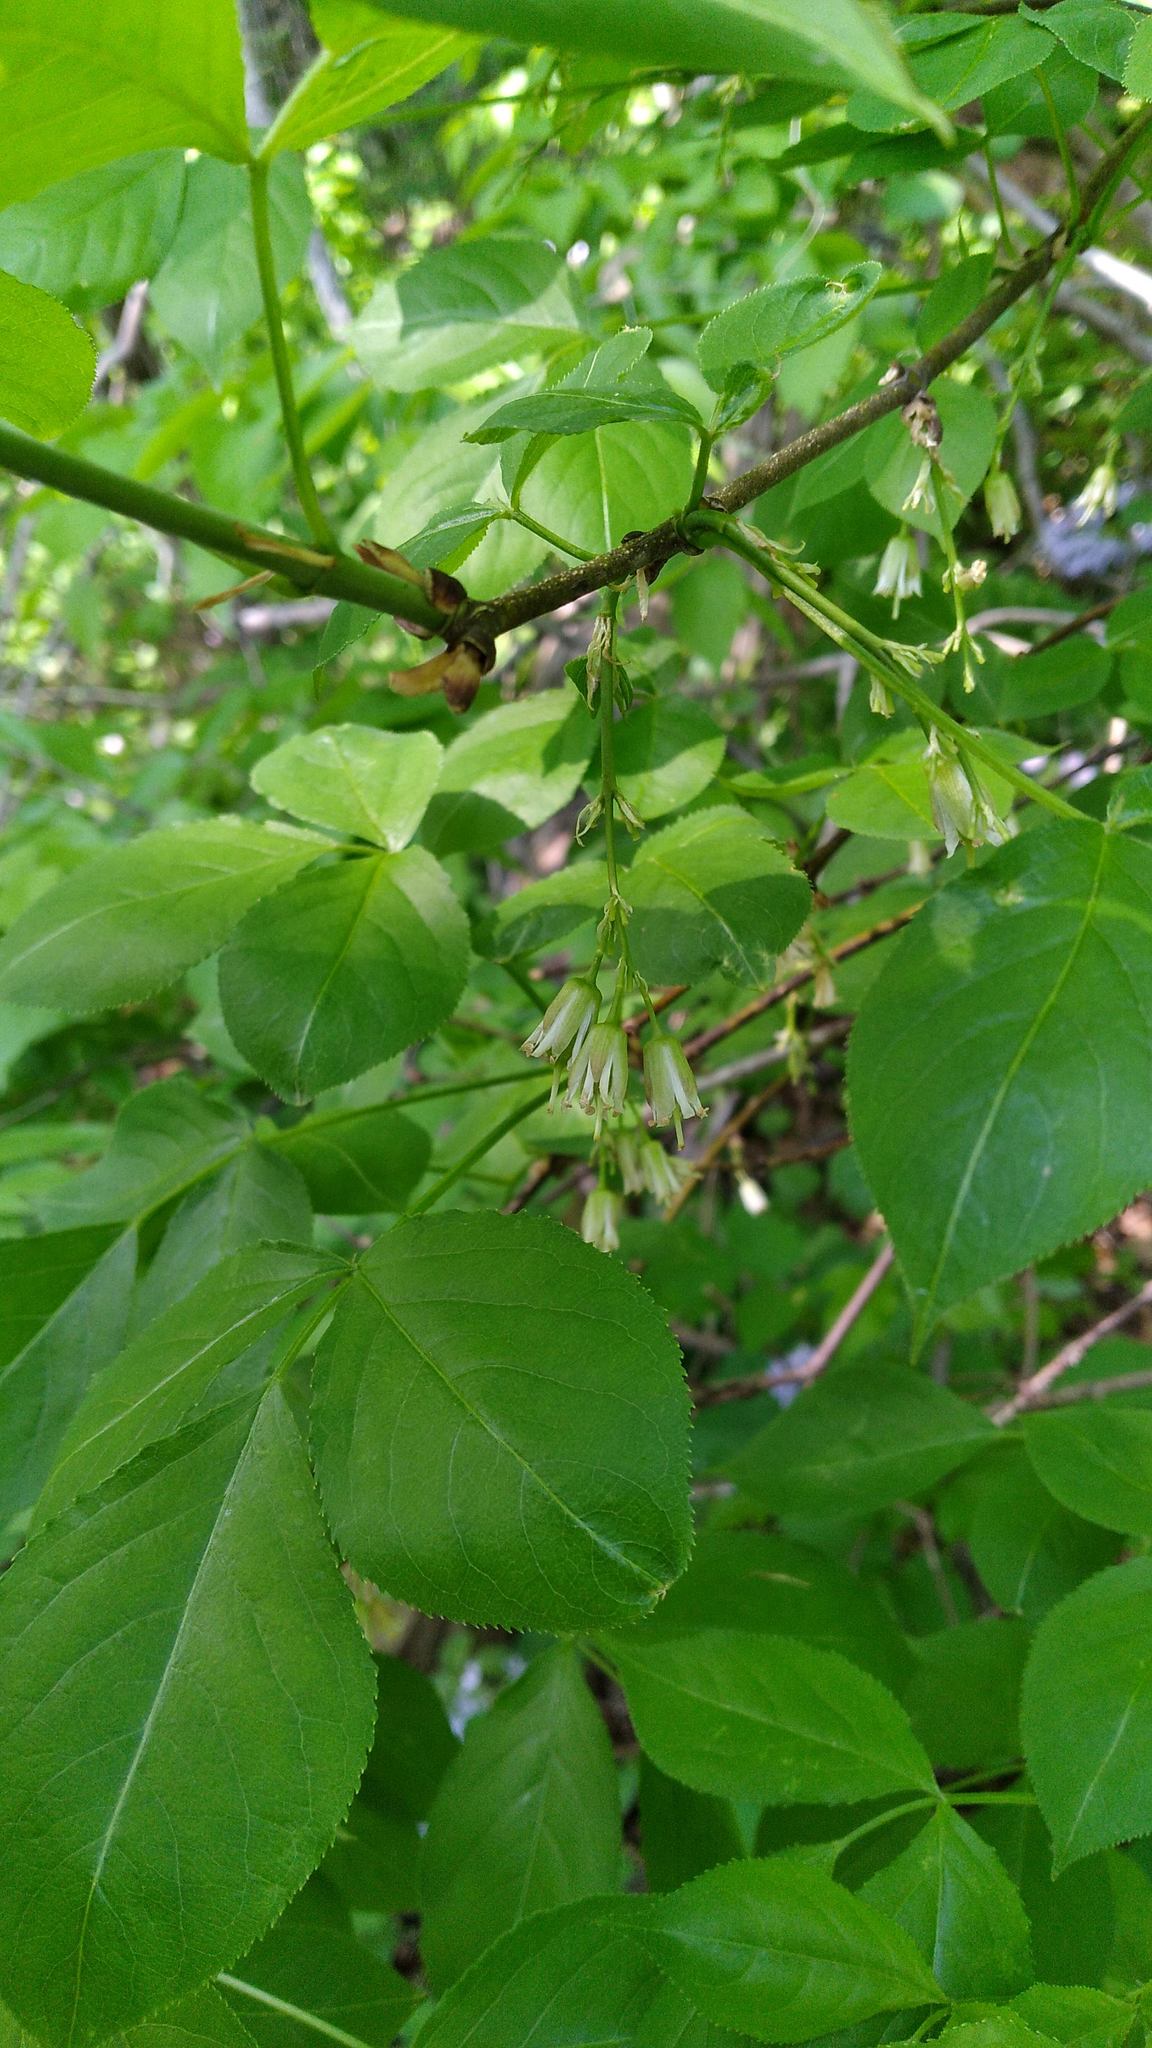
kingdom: Plantae
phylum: Tracheophyta
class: Magnoliopsida
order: Crossosomatales
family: Staphyleaceae
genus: Staphylea
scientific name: Staphylea trifolia
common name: American bladdernut
